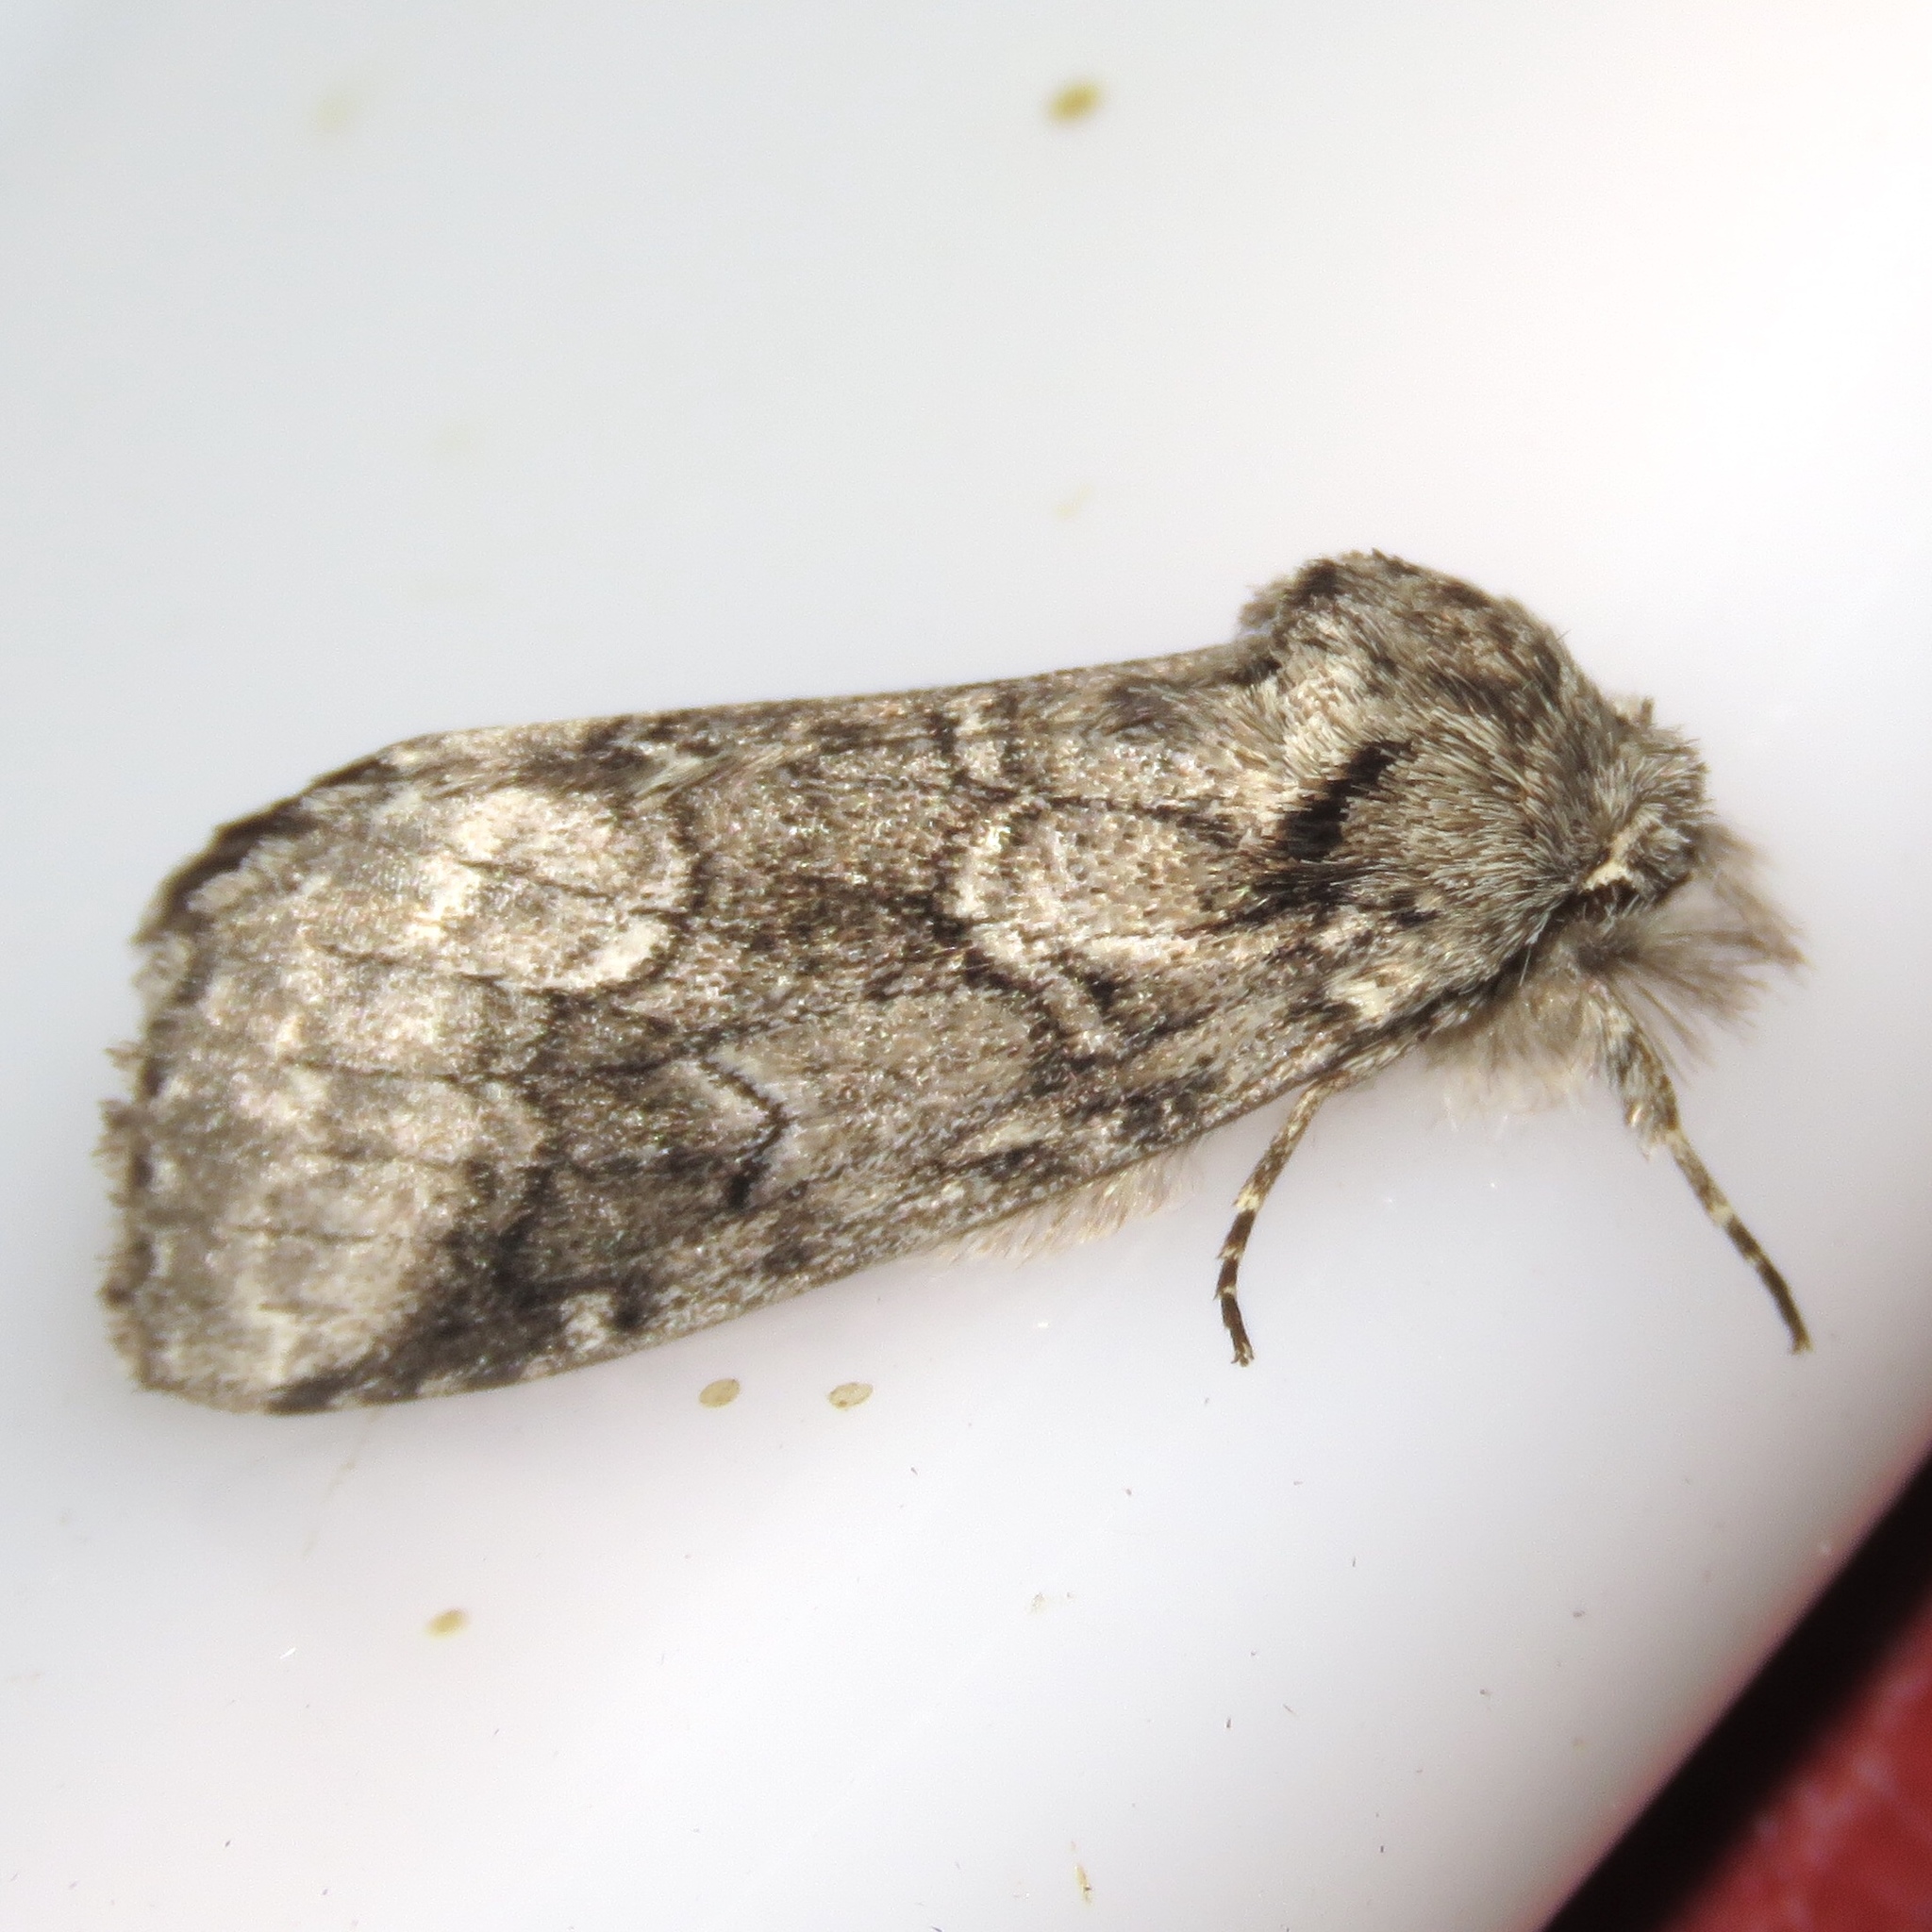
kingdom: Animalia
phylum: Arthropoda
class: Insecta
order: Lepidoptera
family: Notodontidae
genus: Lochmaeus
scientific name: Lochmaeus bilineata
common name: Double-lined prominent
